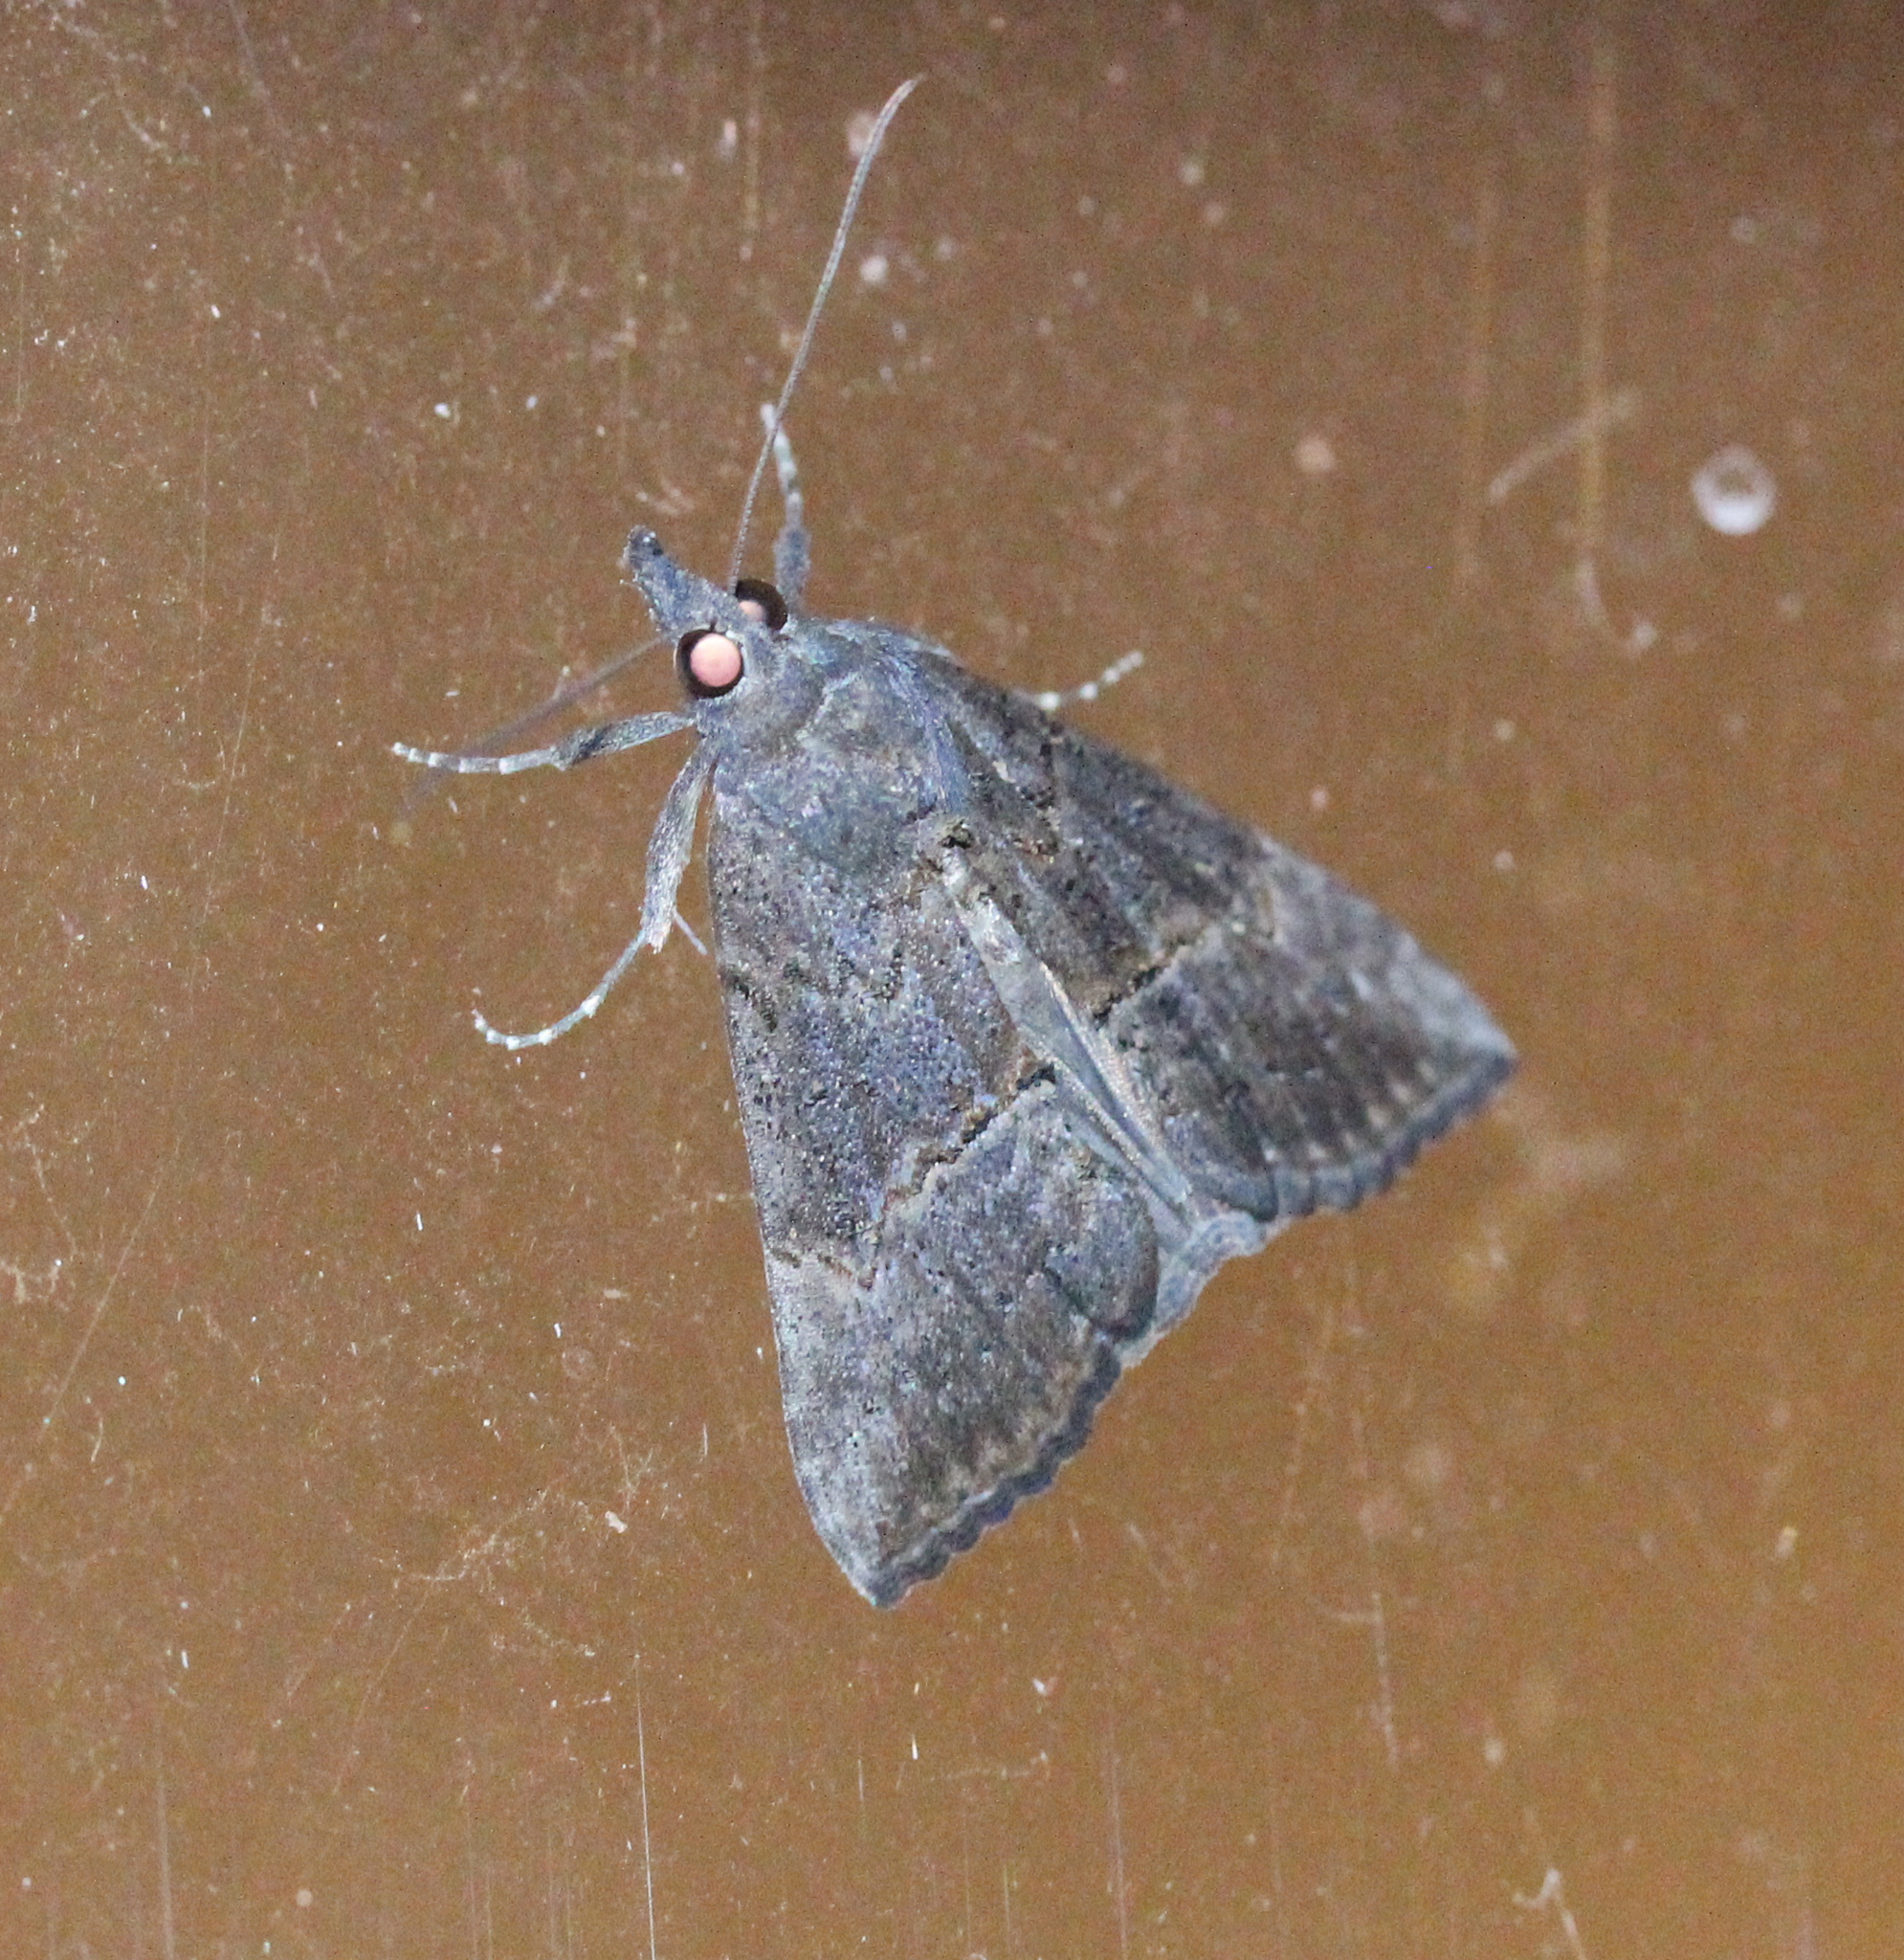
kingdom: Animalia
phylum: Arthropoda
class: Insecta
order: Lepidoptera
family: Erebidae
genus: Hypena
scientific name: Hypena scabra
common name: Green cloverworm
